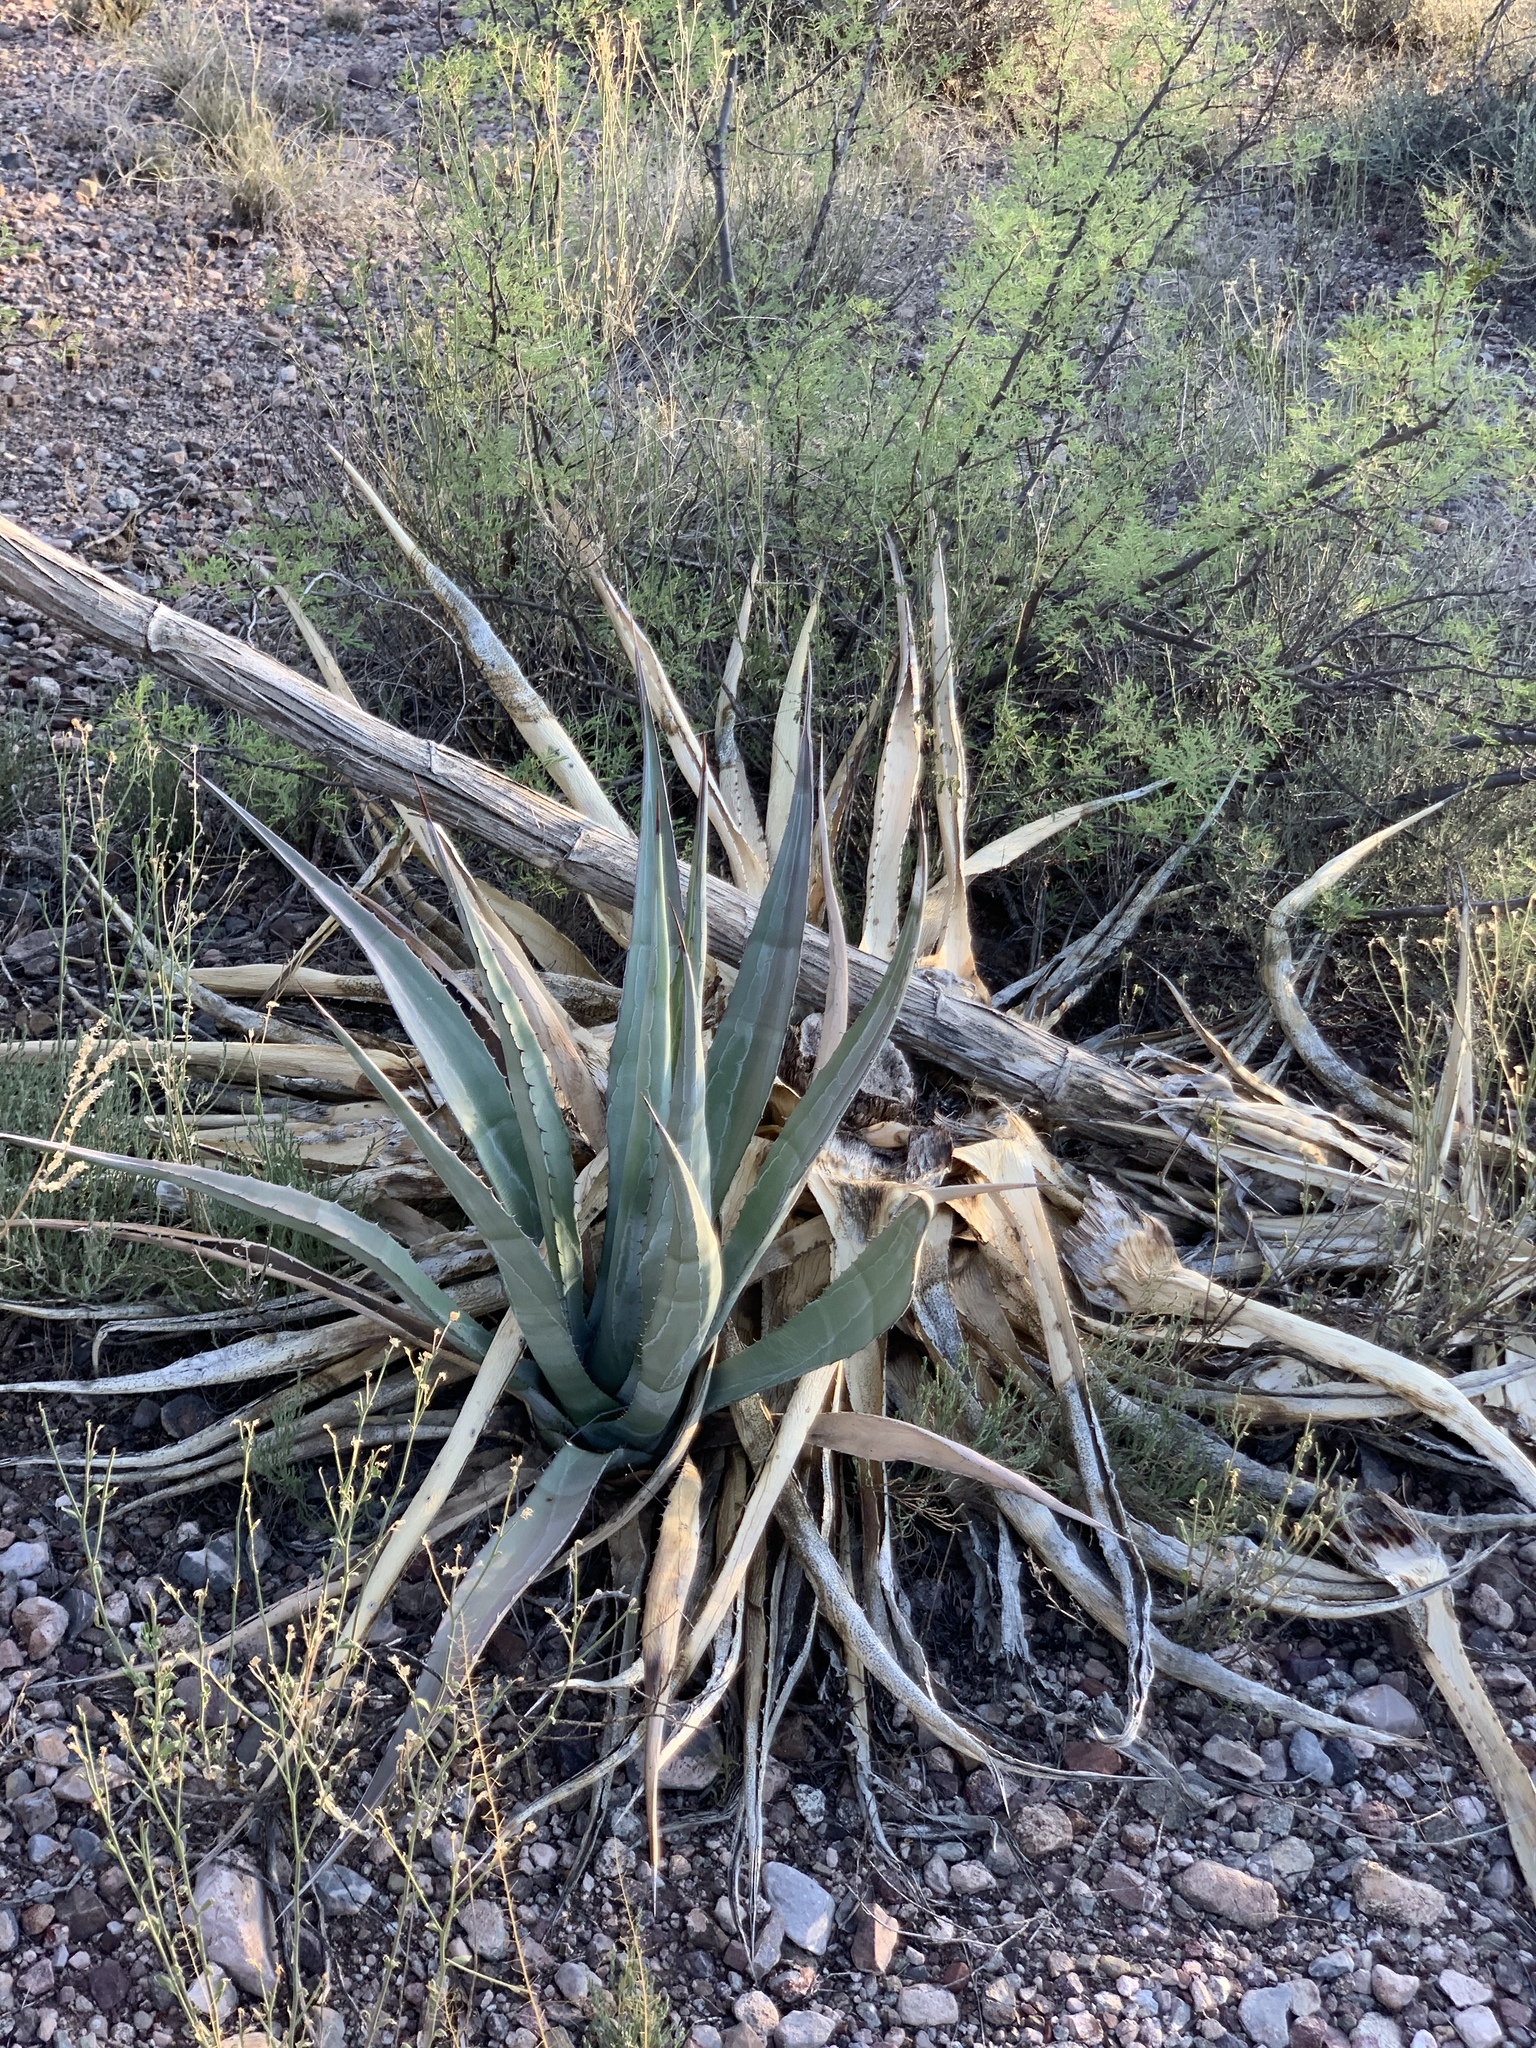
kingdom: Plantae
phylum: Tracheophyta
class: Liliopsida
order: Asparagales
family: Asparagaceae
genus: Agave
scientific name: Agave palmeri
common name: Palmer agave
